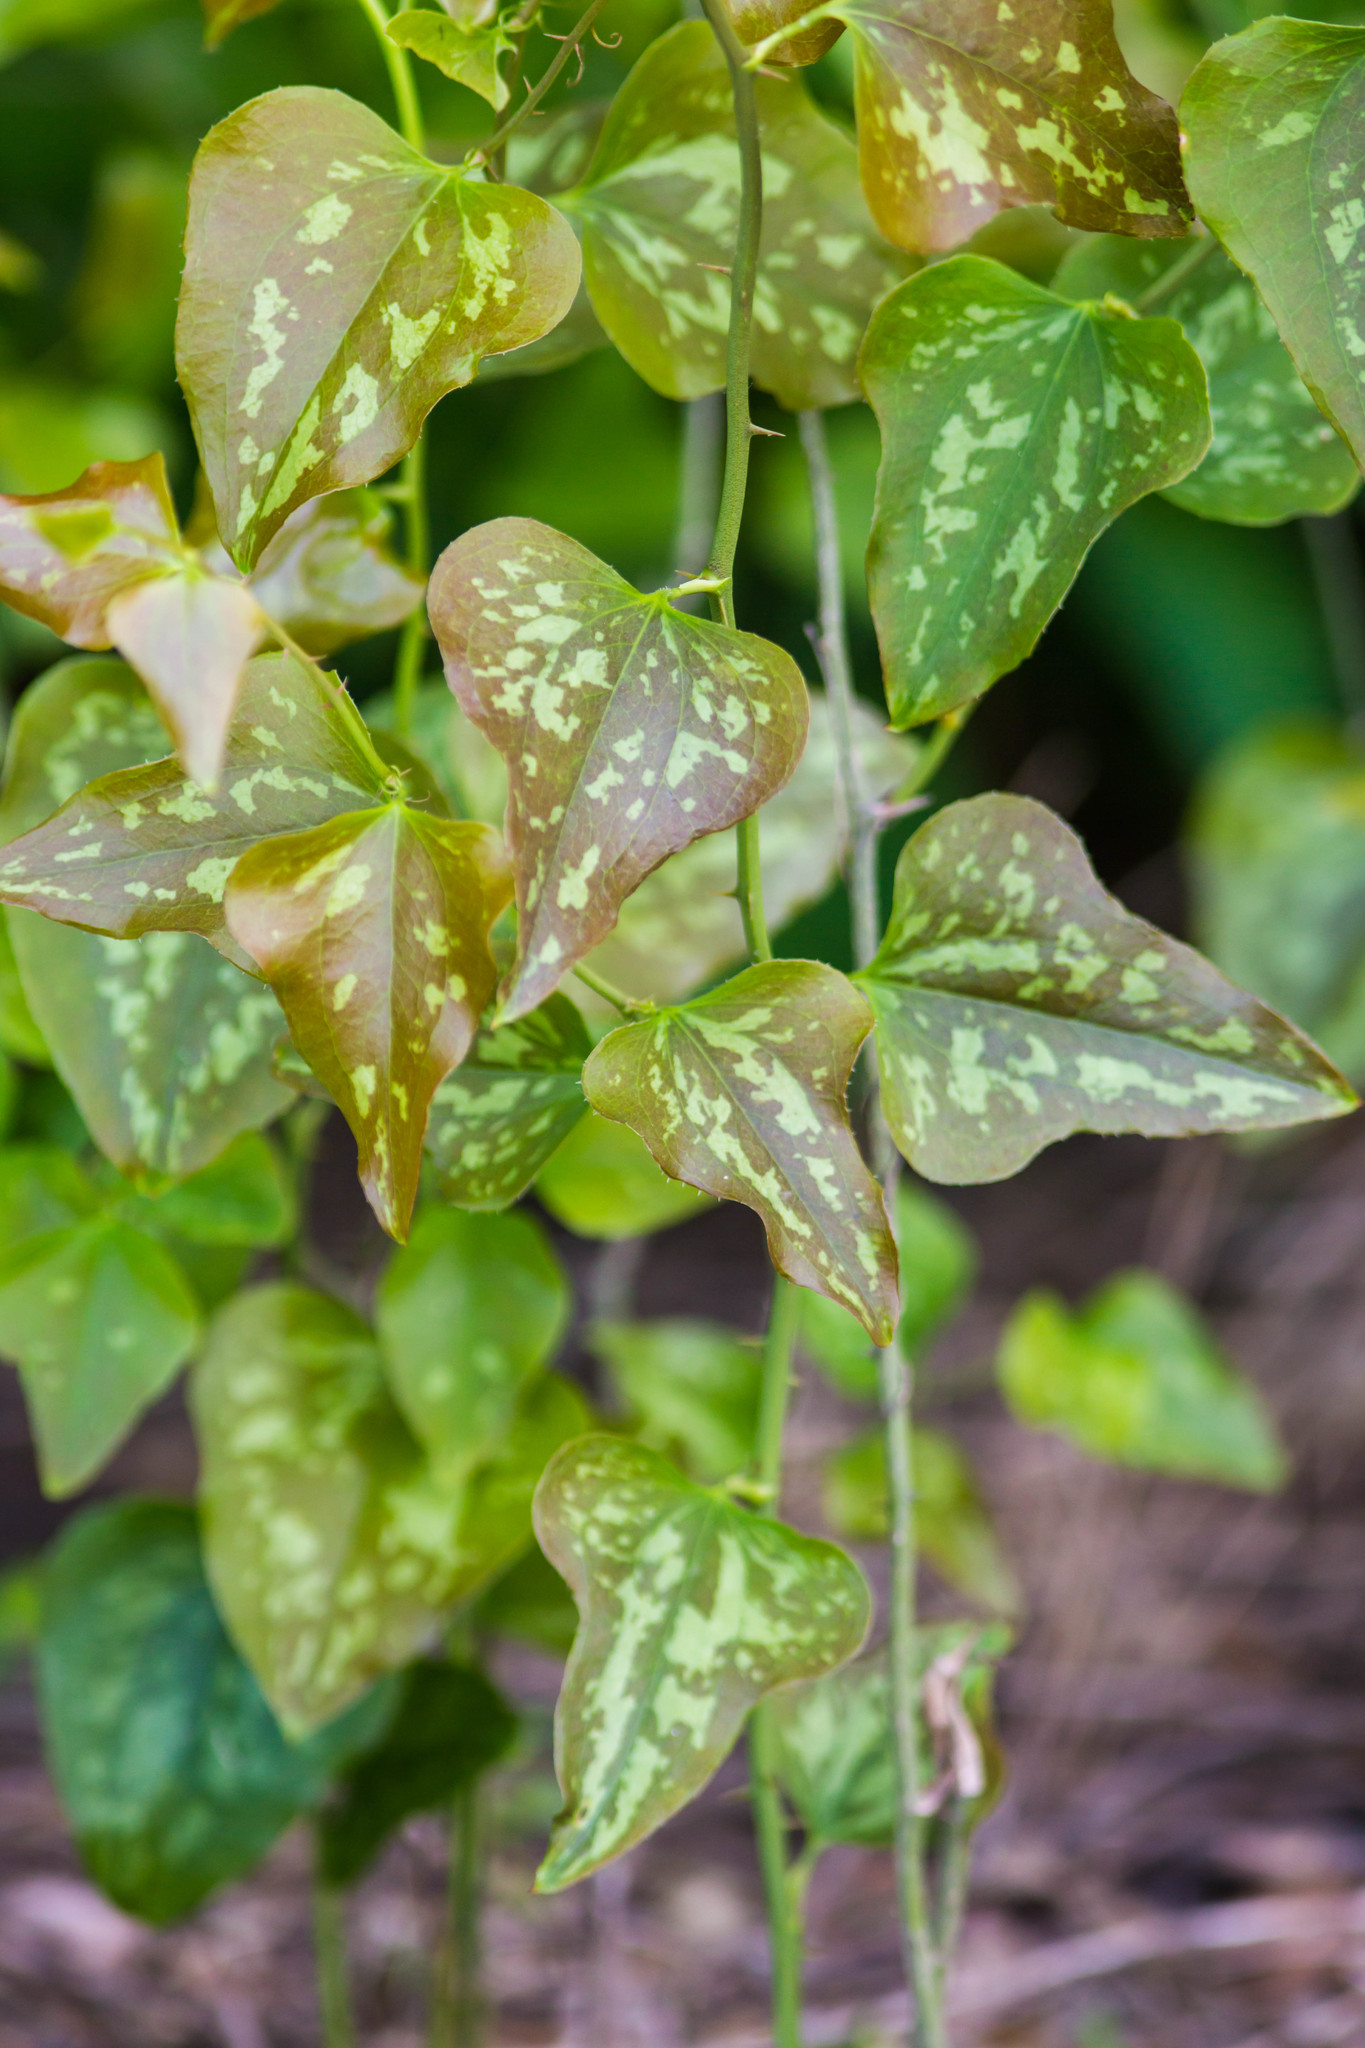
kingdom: Plantae
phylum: Tracheophyta
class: Liliopsida
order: Liliales
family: Smilacaceae
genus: Smilax
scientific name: Smilax bona-nox
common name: Catbrier
